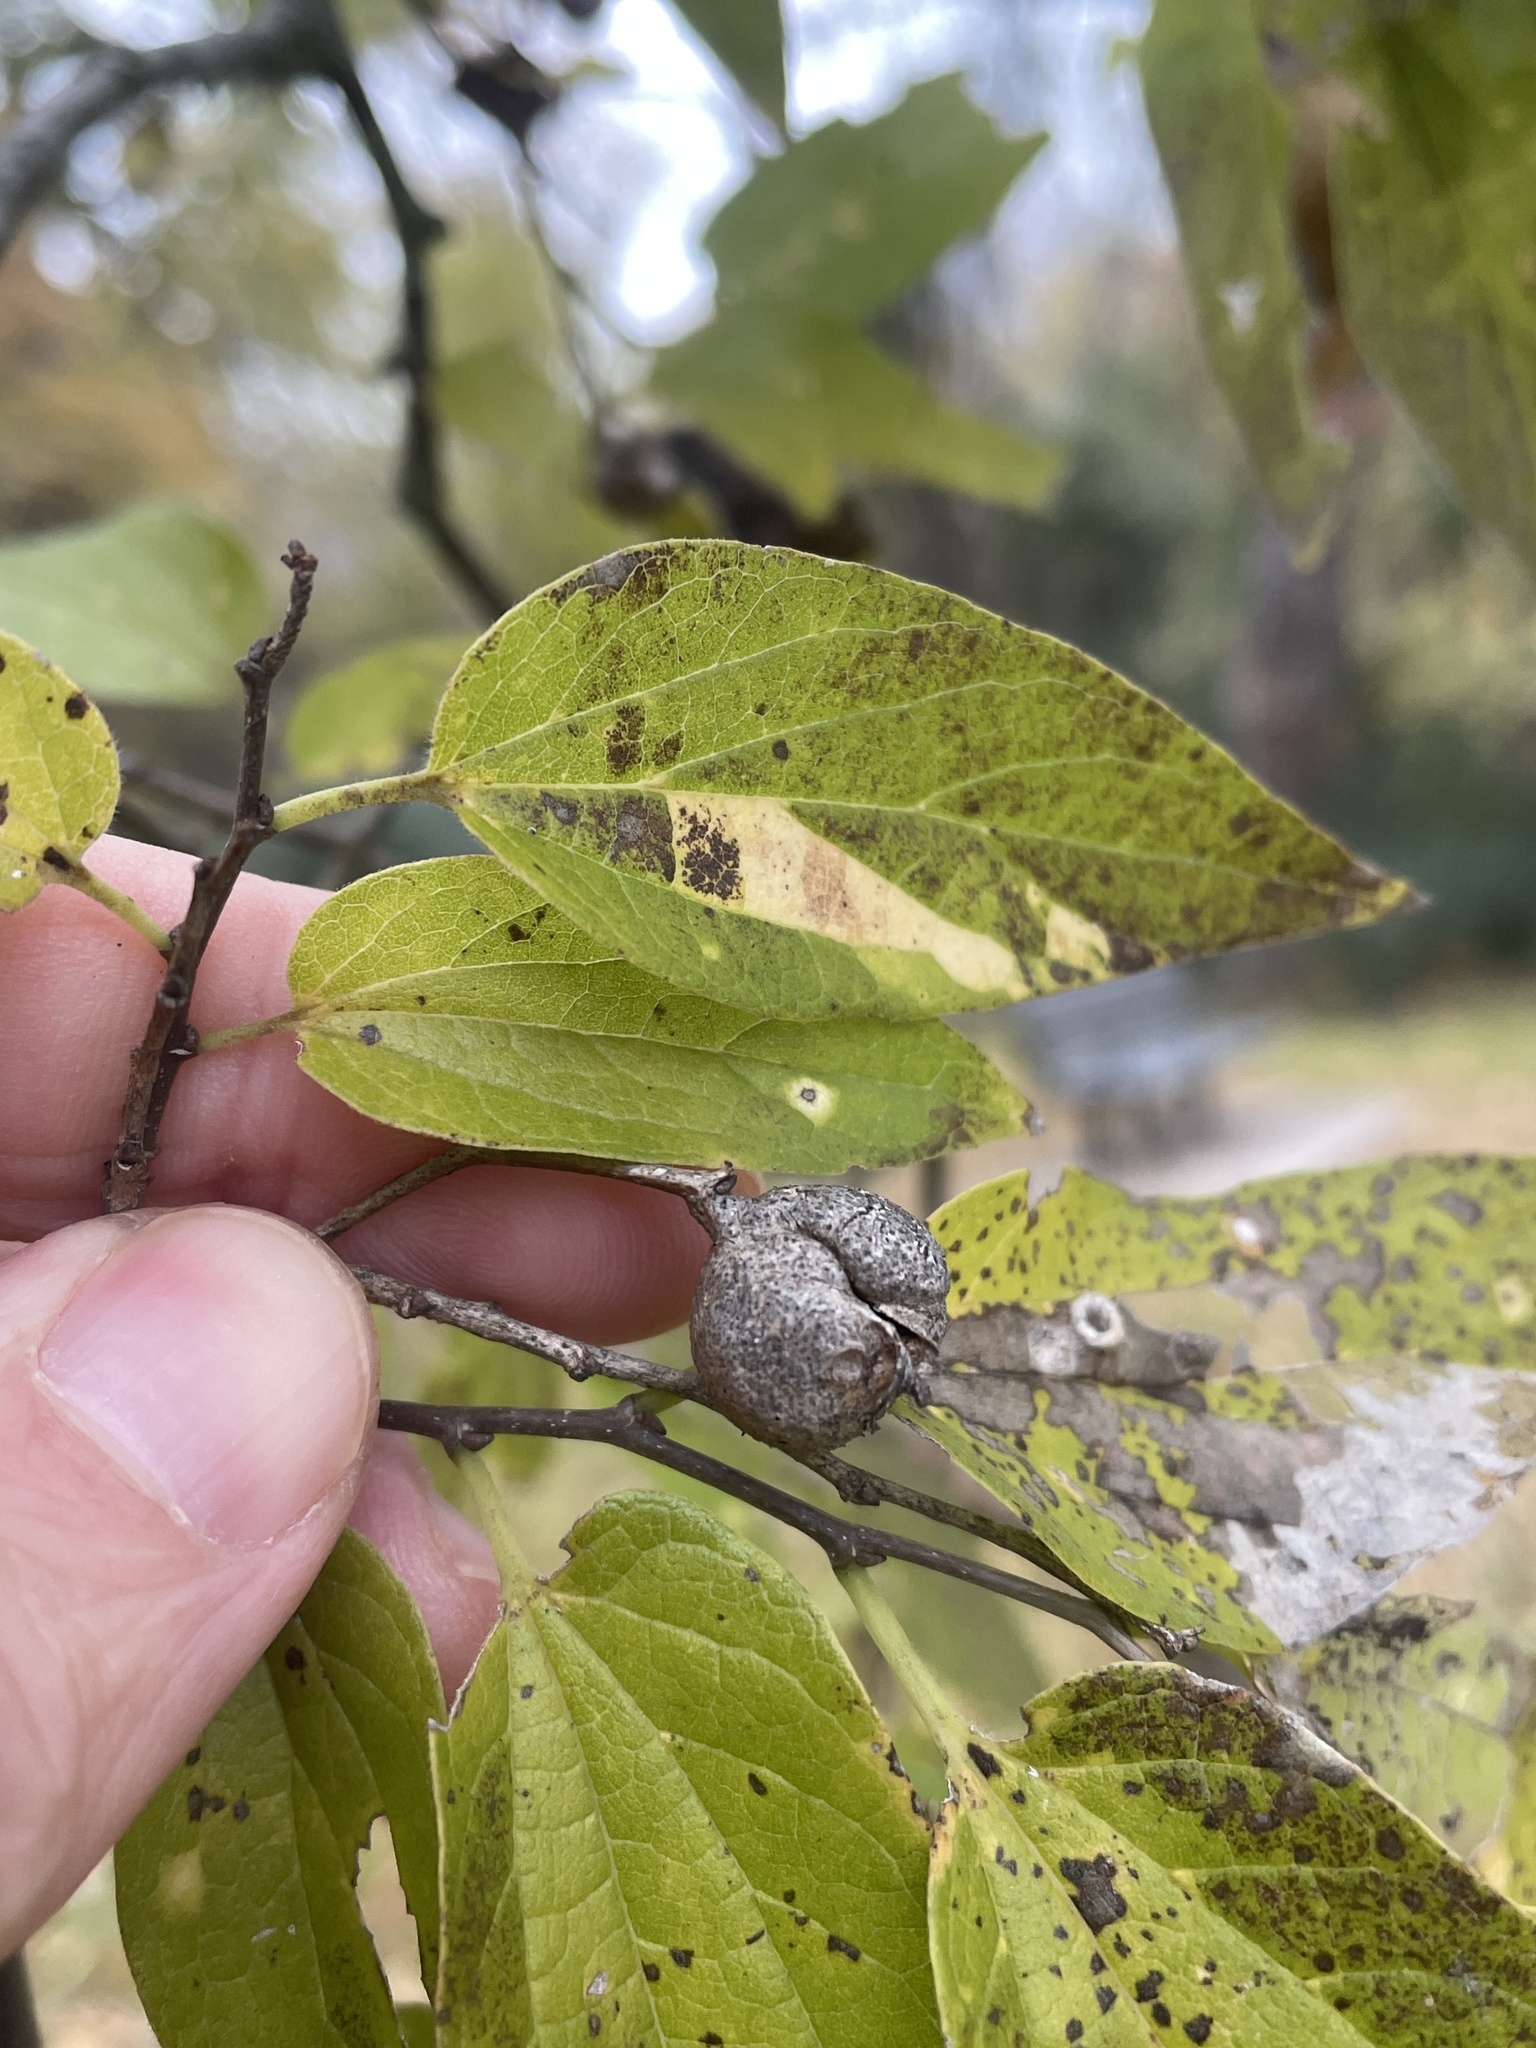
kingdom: Animalia
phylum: Arthropoda
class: Insecta
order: Hemiptera
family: Aphalaridae
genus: Pachypsylla
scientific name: Pachypsylla venusta
